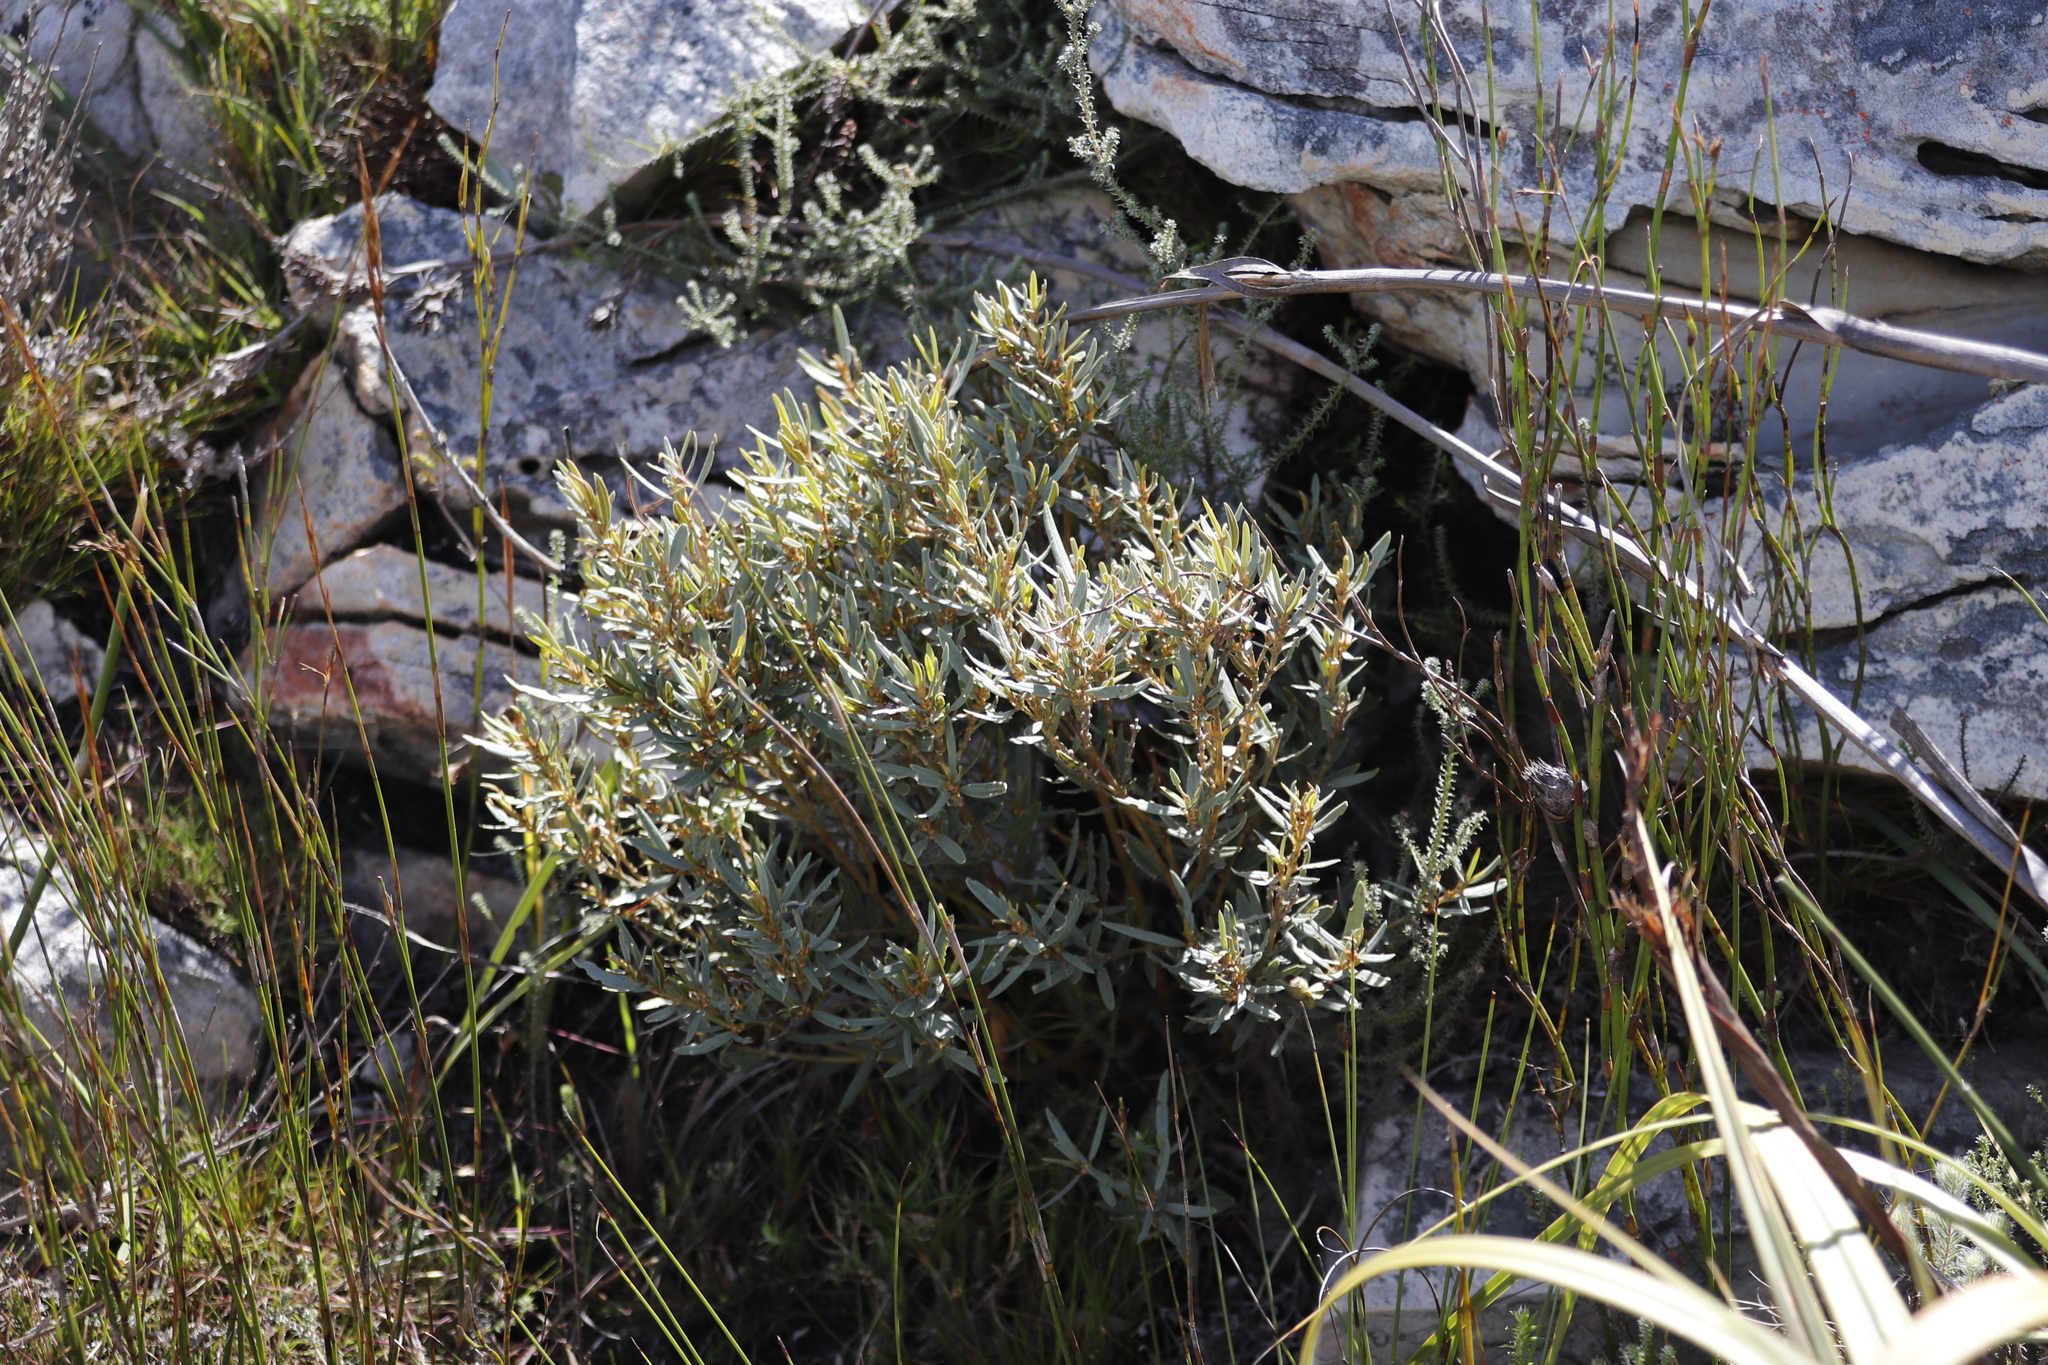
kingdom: Plantae
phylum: Tracheophyta
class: Magnoliopsida
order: Cornales
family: Grubbiaceae
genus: Grubbia
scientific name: Grubbia tomentosa
